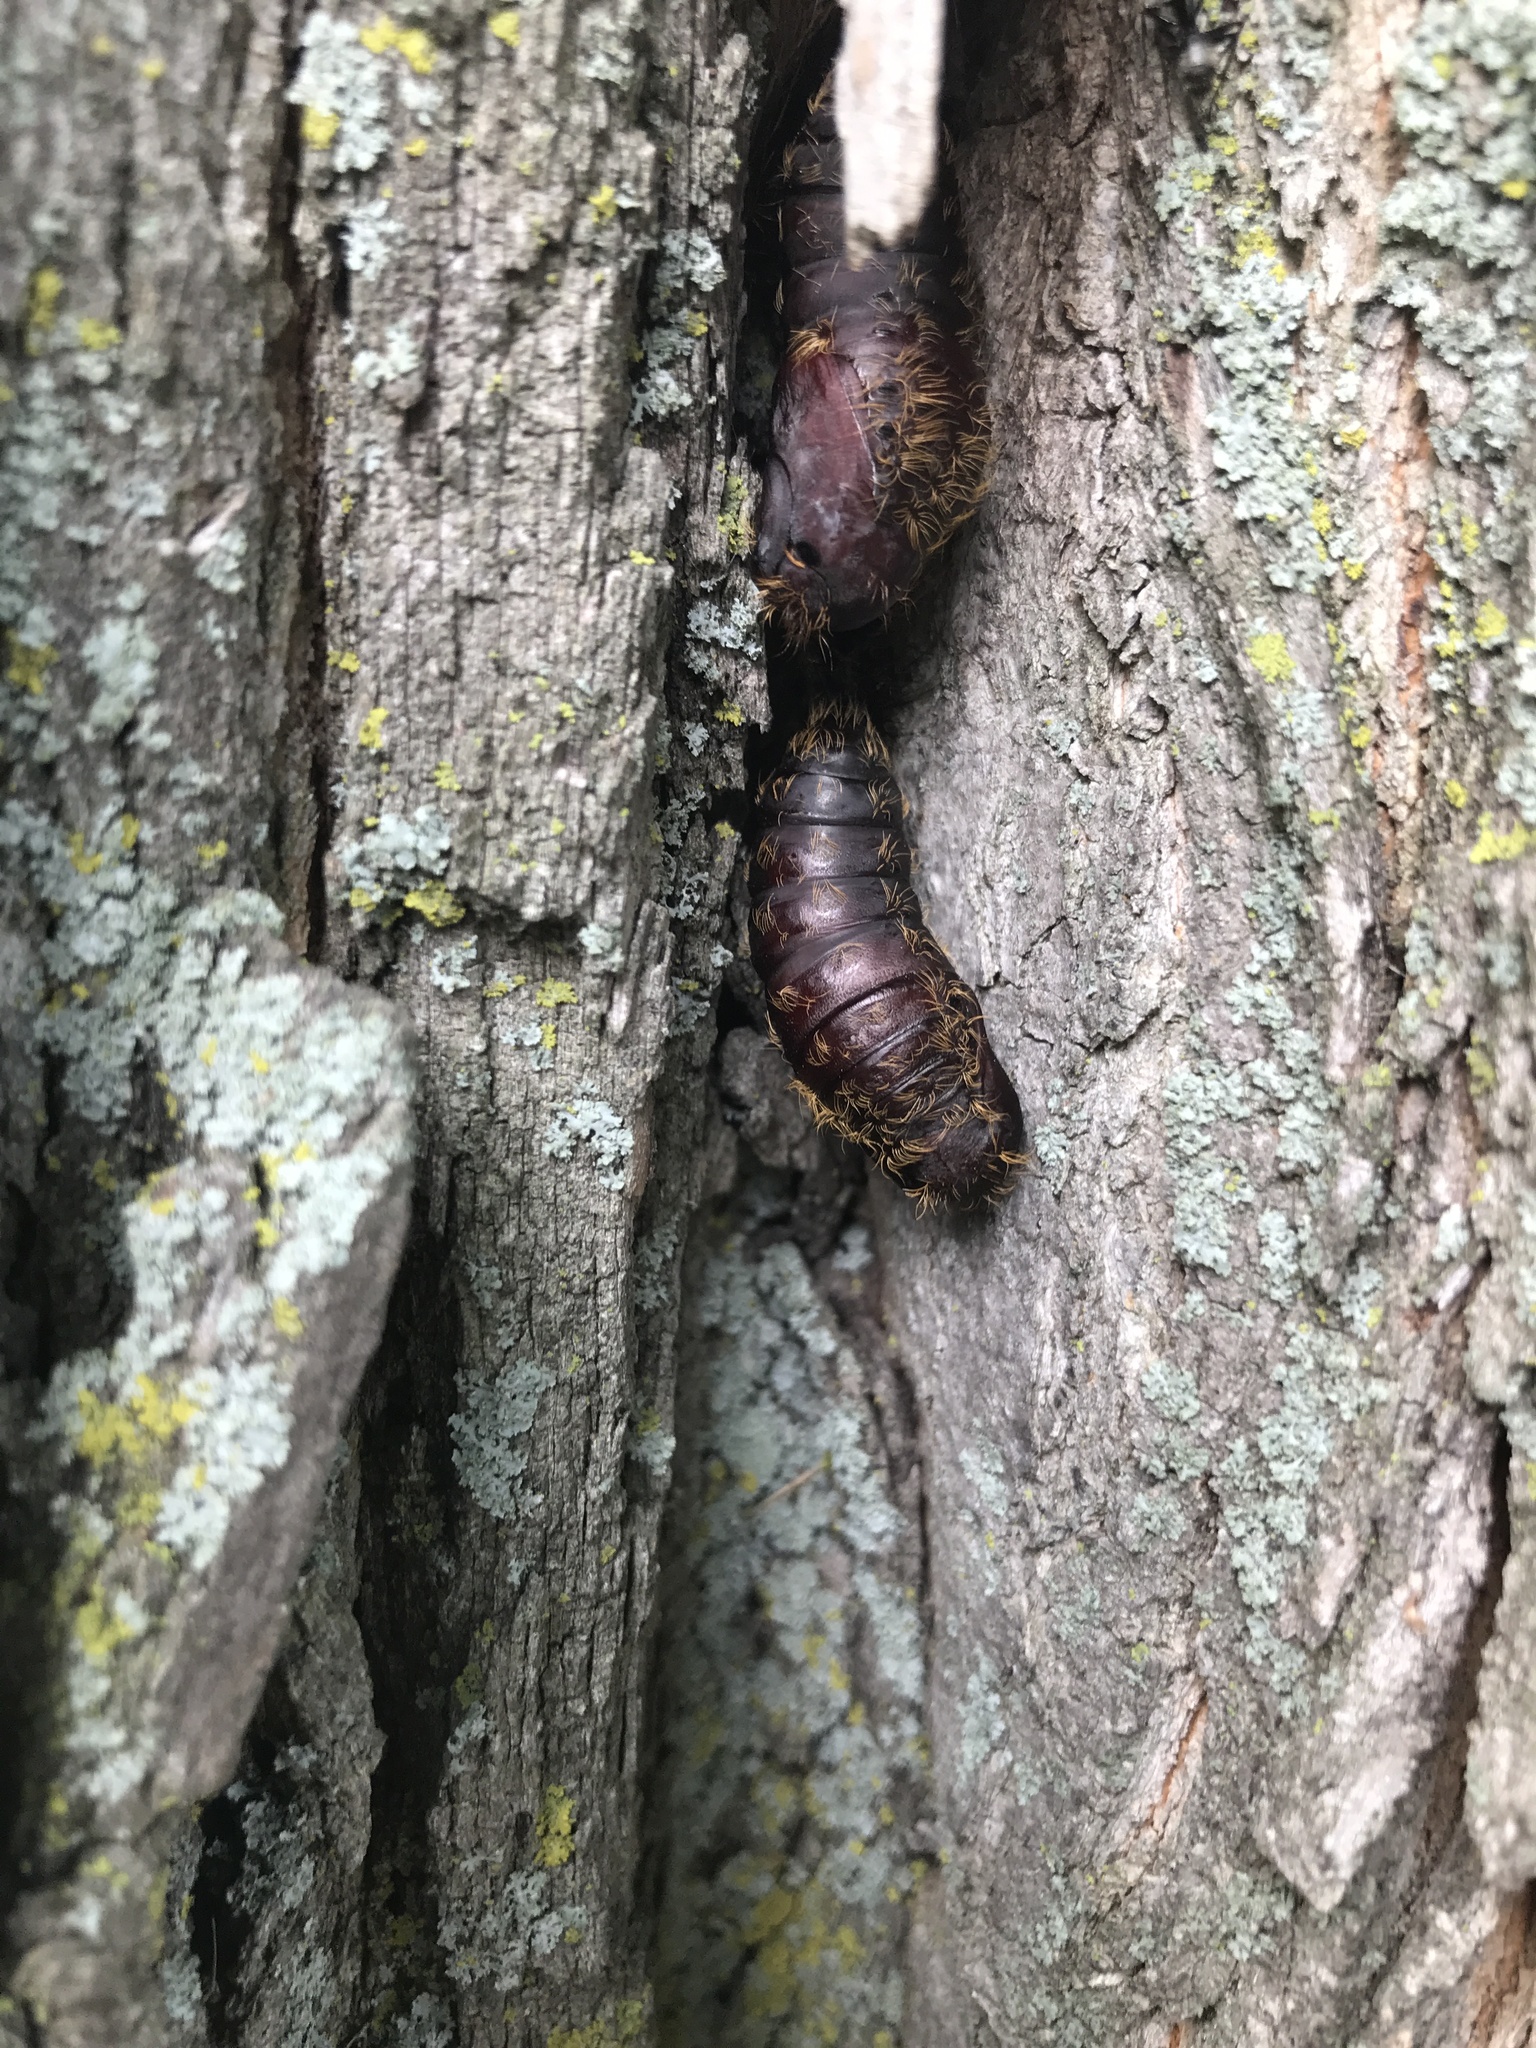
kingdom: Animalia
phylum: Arthropoda
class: Insecta
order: Lepidoptera
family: Erebidae
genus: Lymantria
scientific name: Lymantria dispar
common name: Gypsy moth
